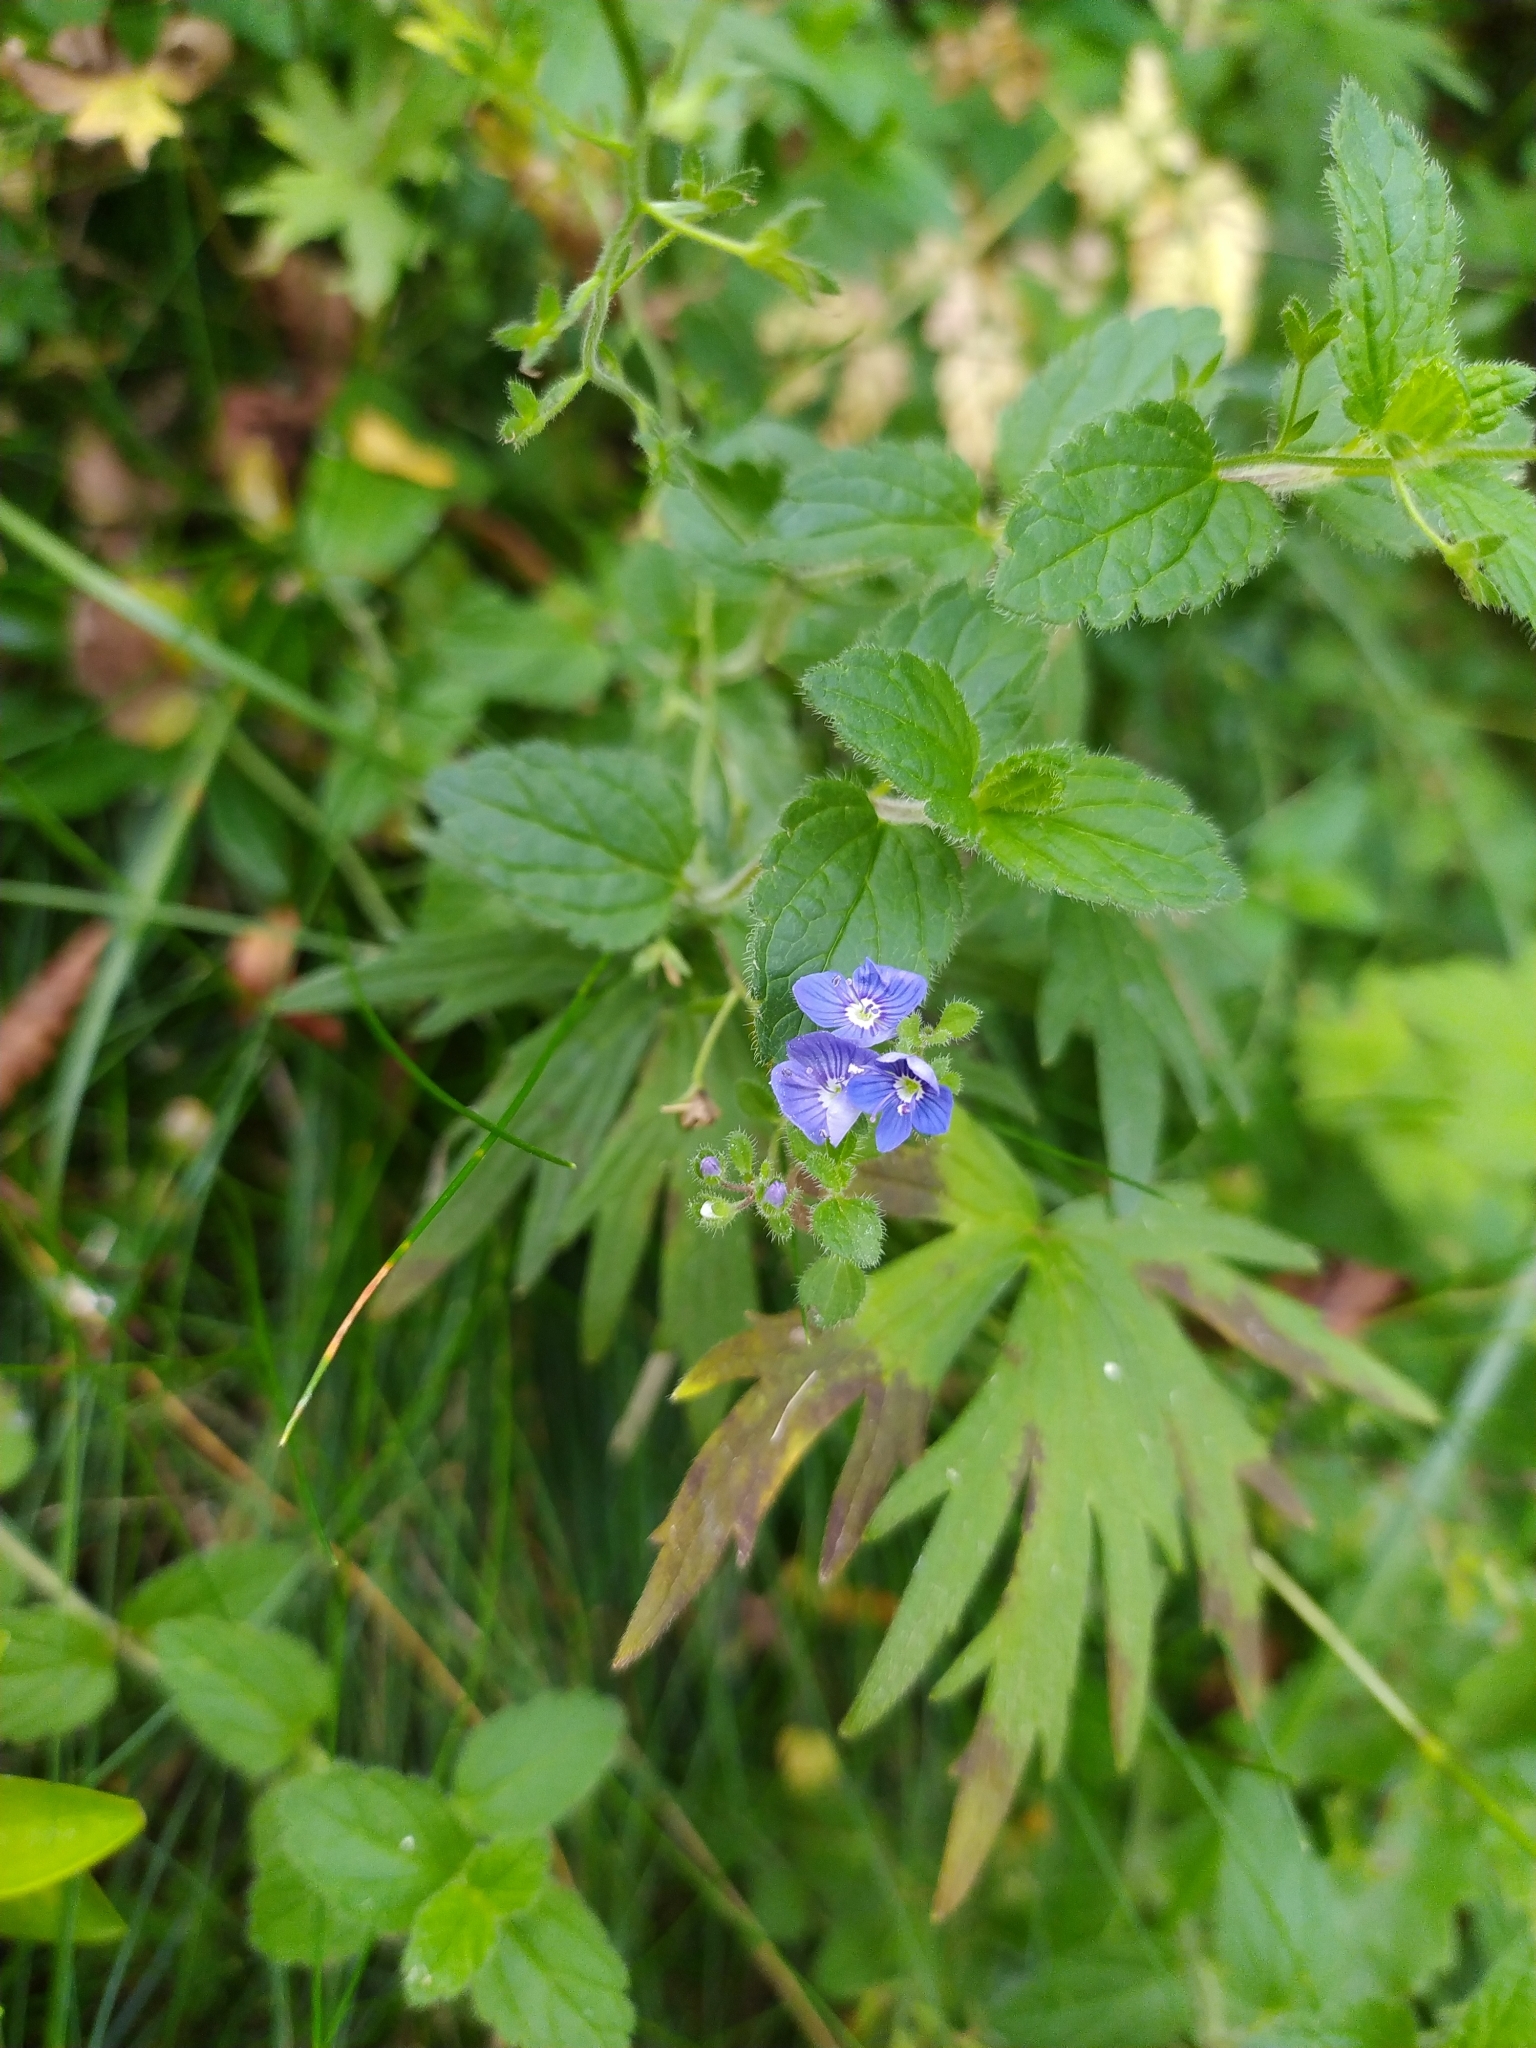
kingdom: Plantae
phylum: Tracheophyta
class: Magnoliopsida
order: Lamiales
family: Plantaginaceae
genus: Veronica
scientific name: Veronica chamaedrys
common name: Germander speedwell
